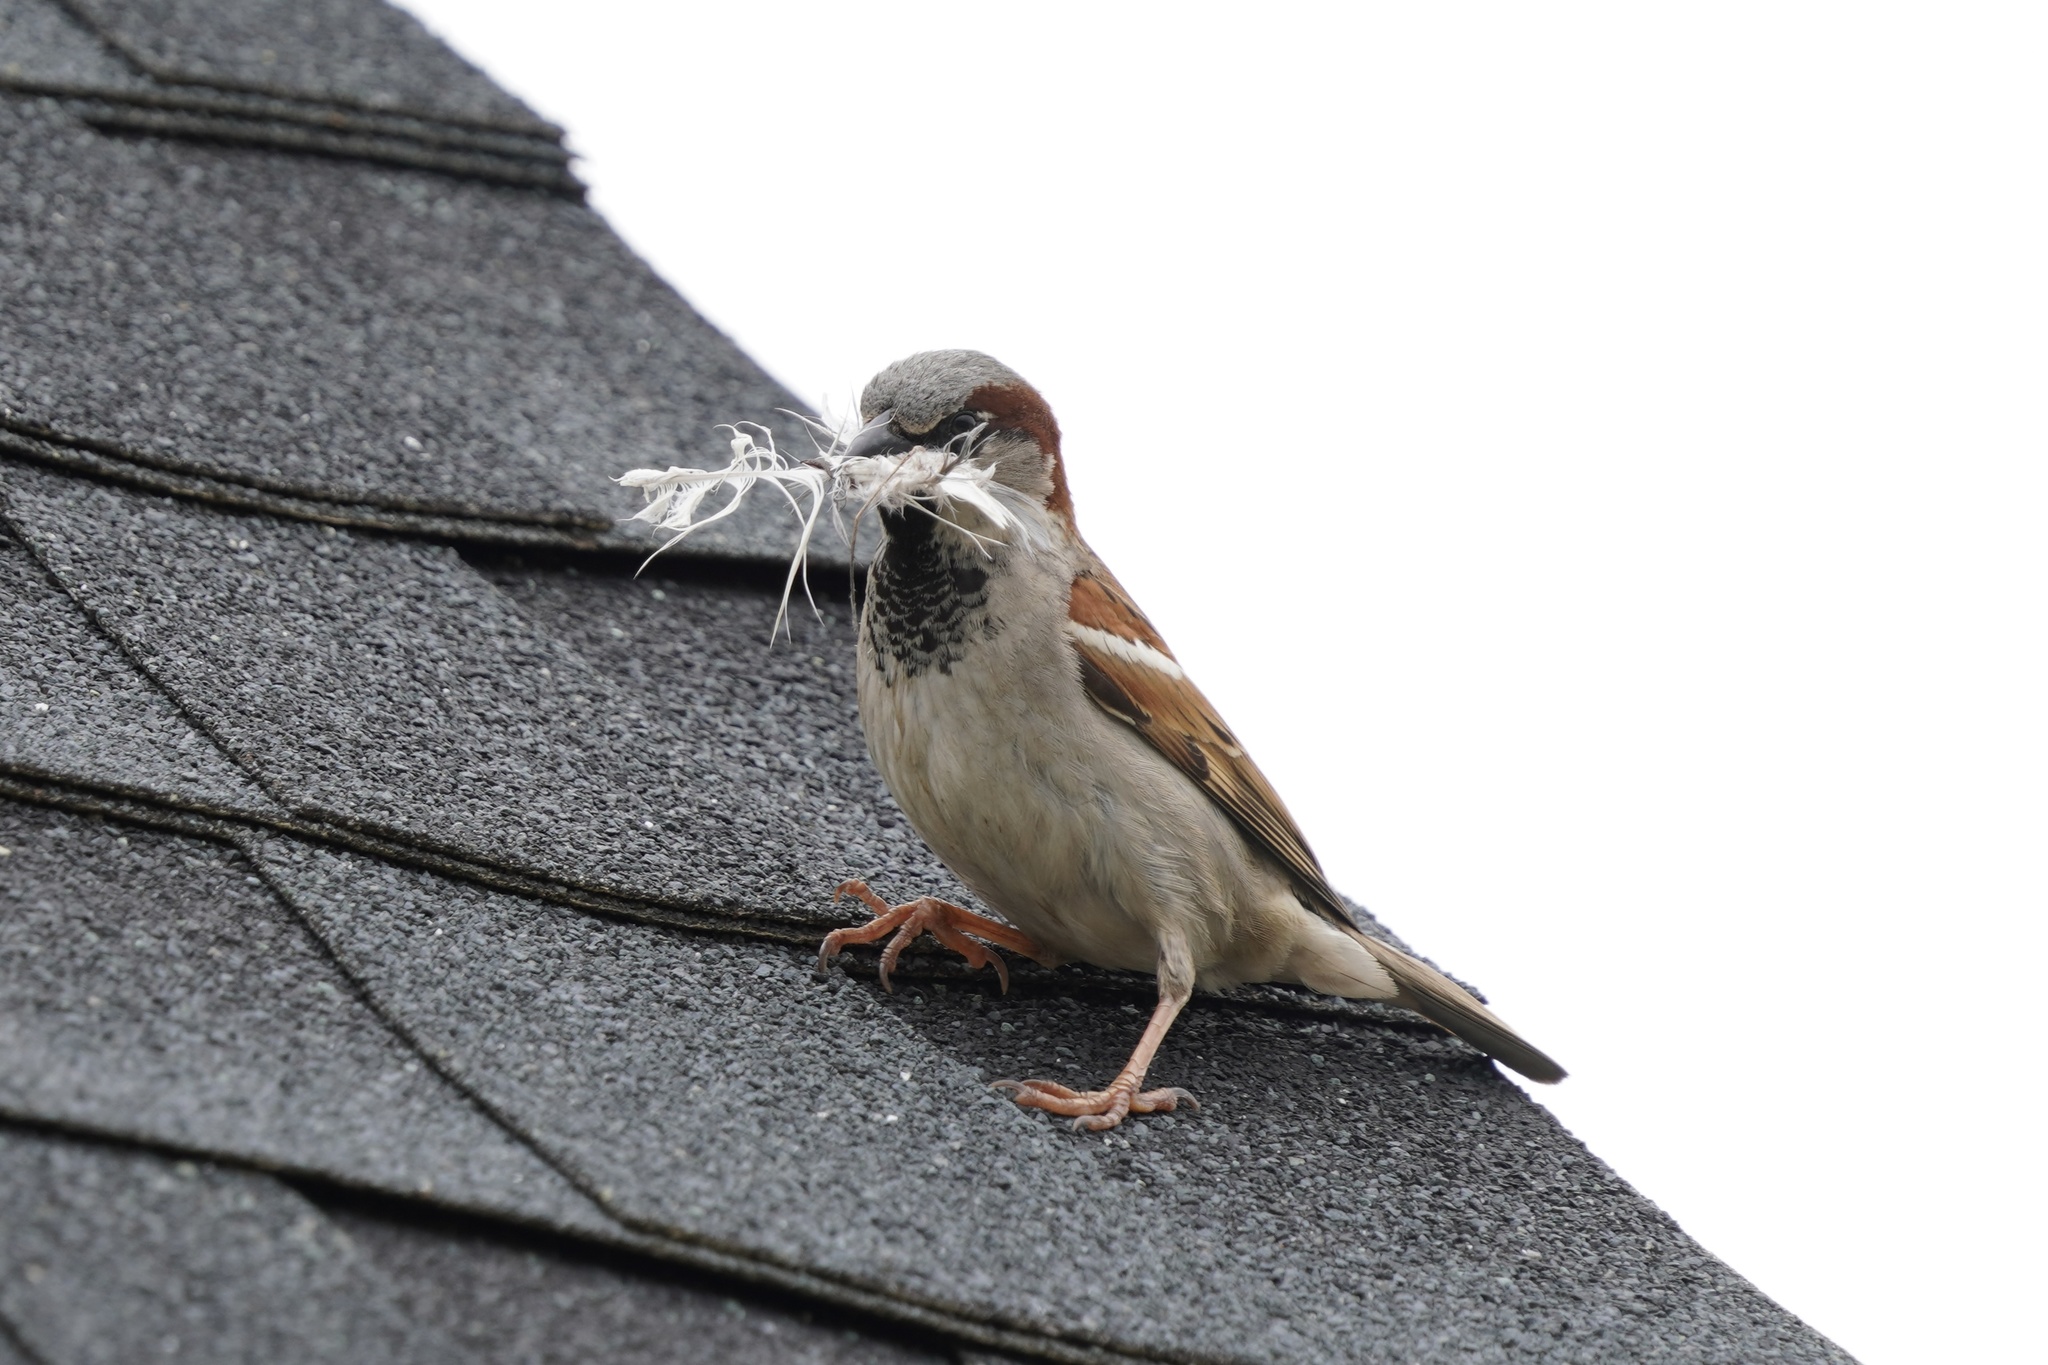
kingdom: Animalia
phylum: Chordata
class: Aves
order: Passeriformes
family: Passeridae
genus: Passer
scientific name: Passer domesticus
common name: House sparrow
